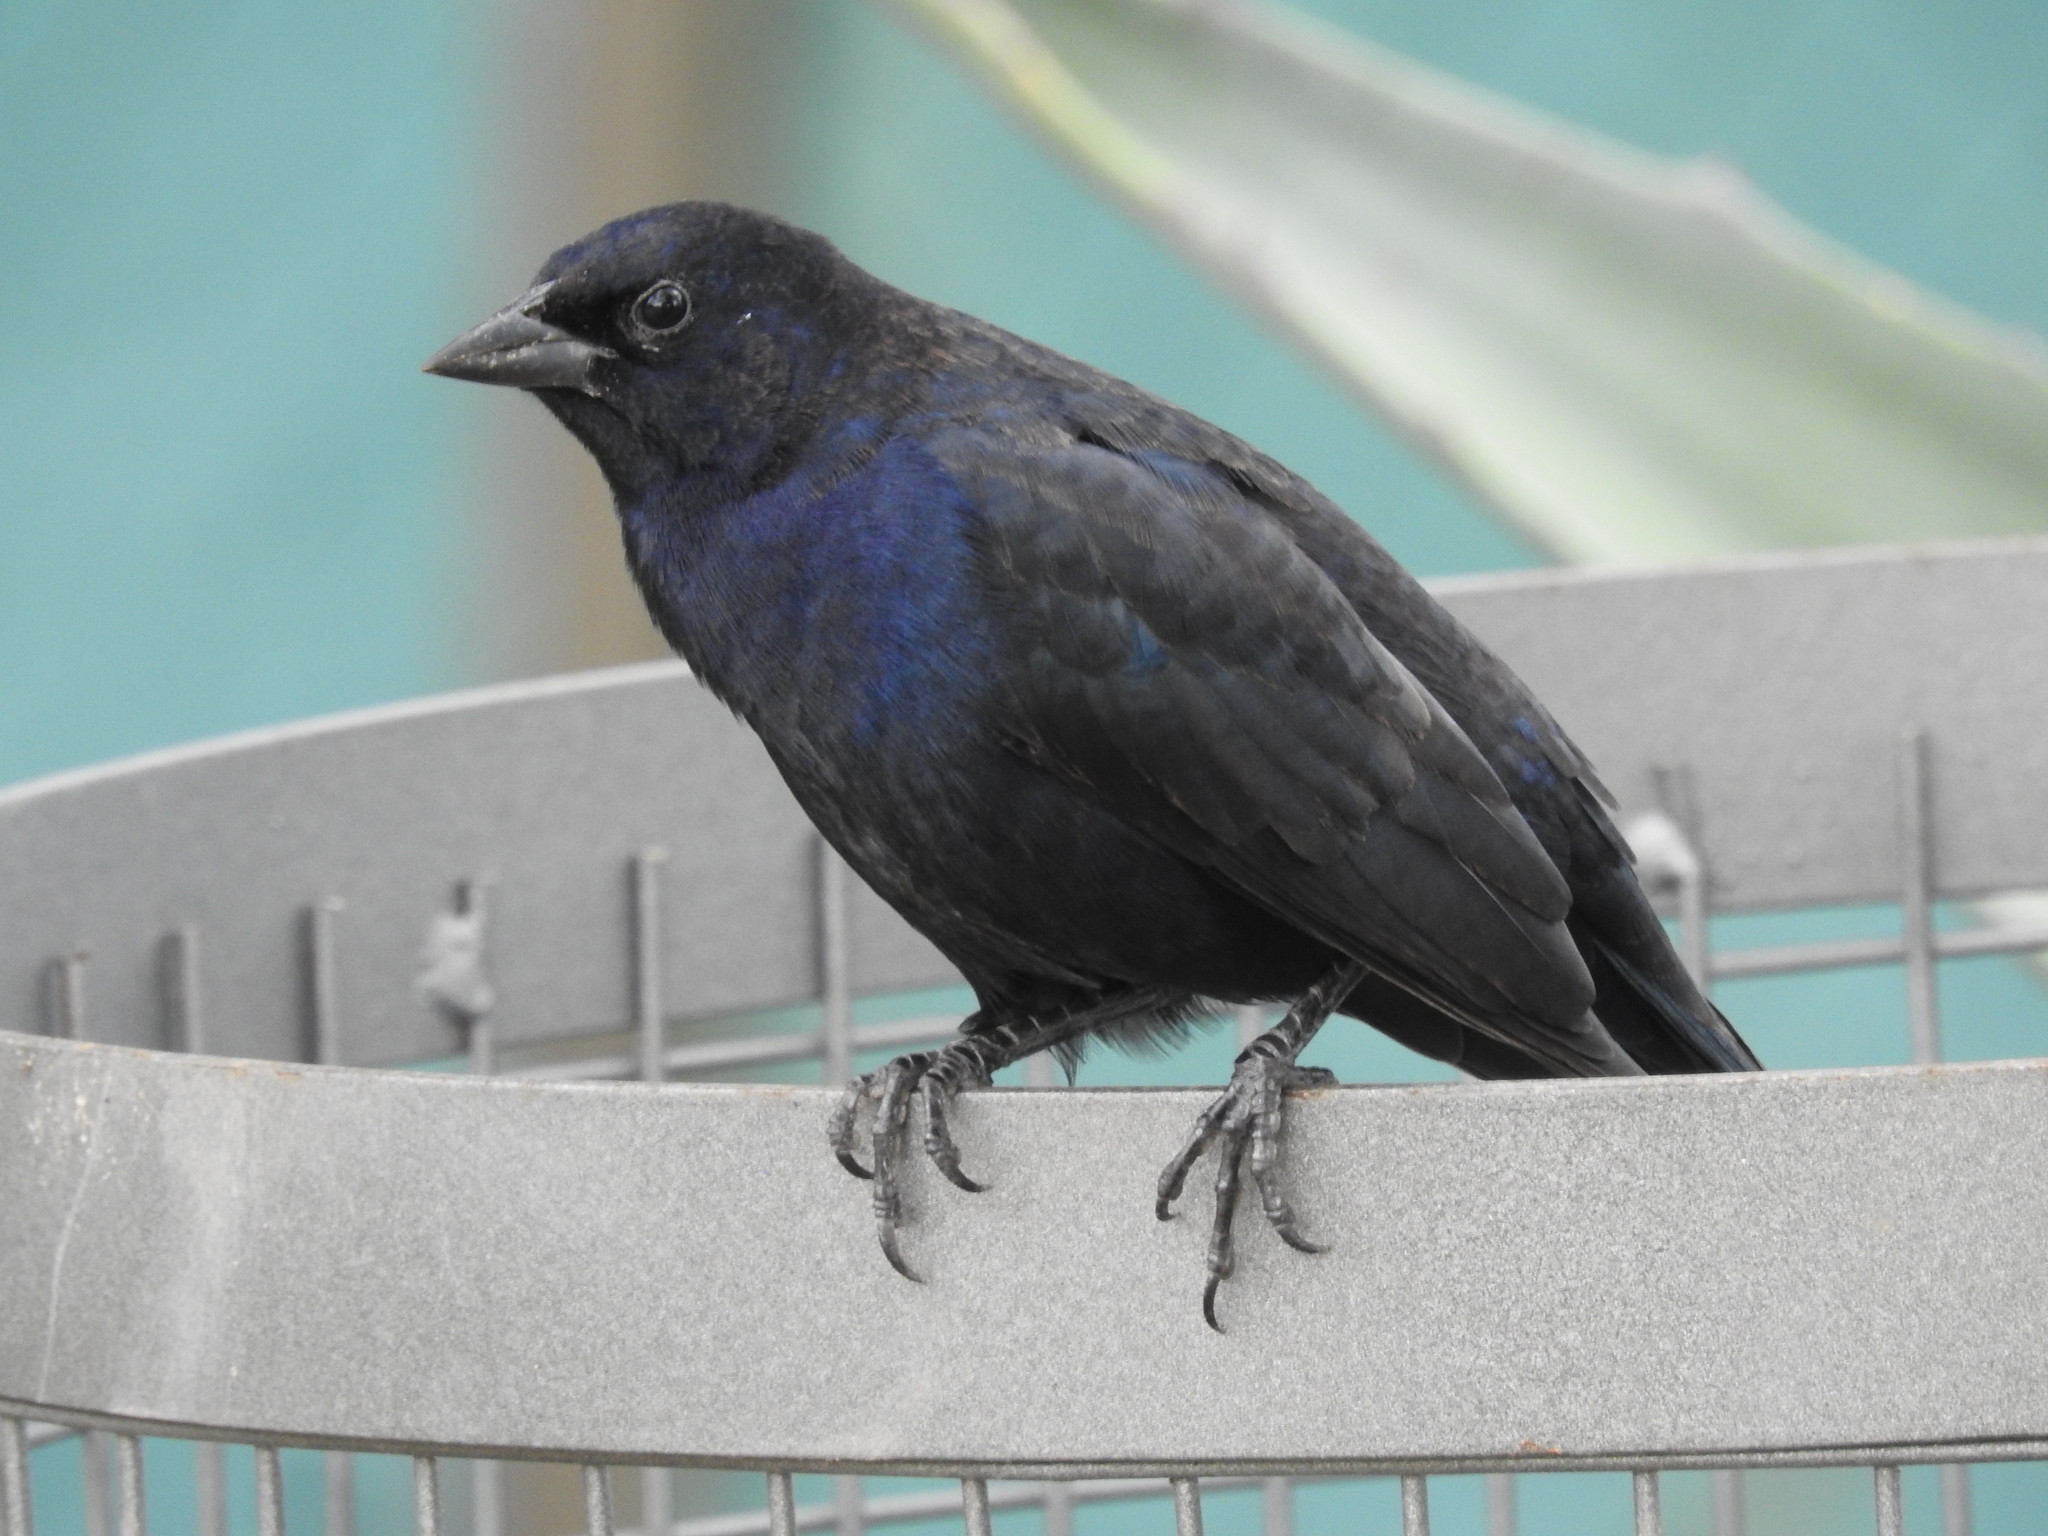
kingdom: Animalia
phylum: Chordata
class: Aves
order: Passeriformes
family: Icteridae
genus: Molothrus
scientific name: Molothrus rufoaxillaris
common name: Screaming cowbird
